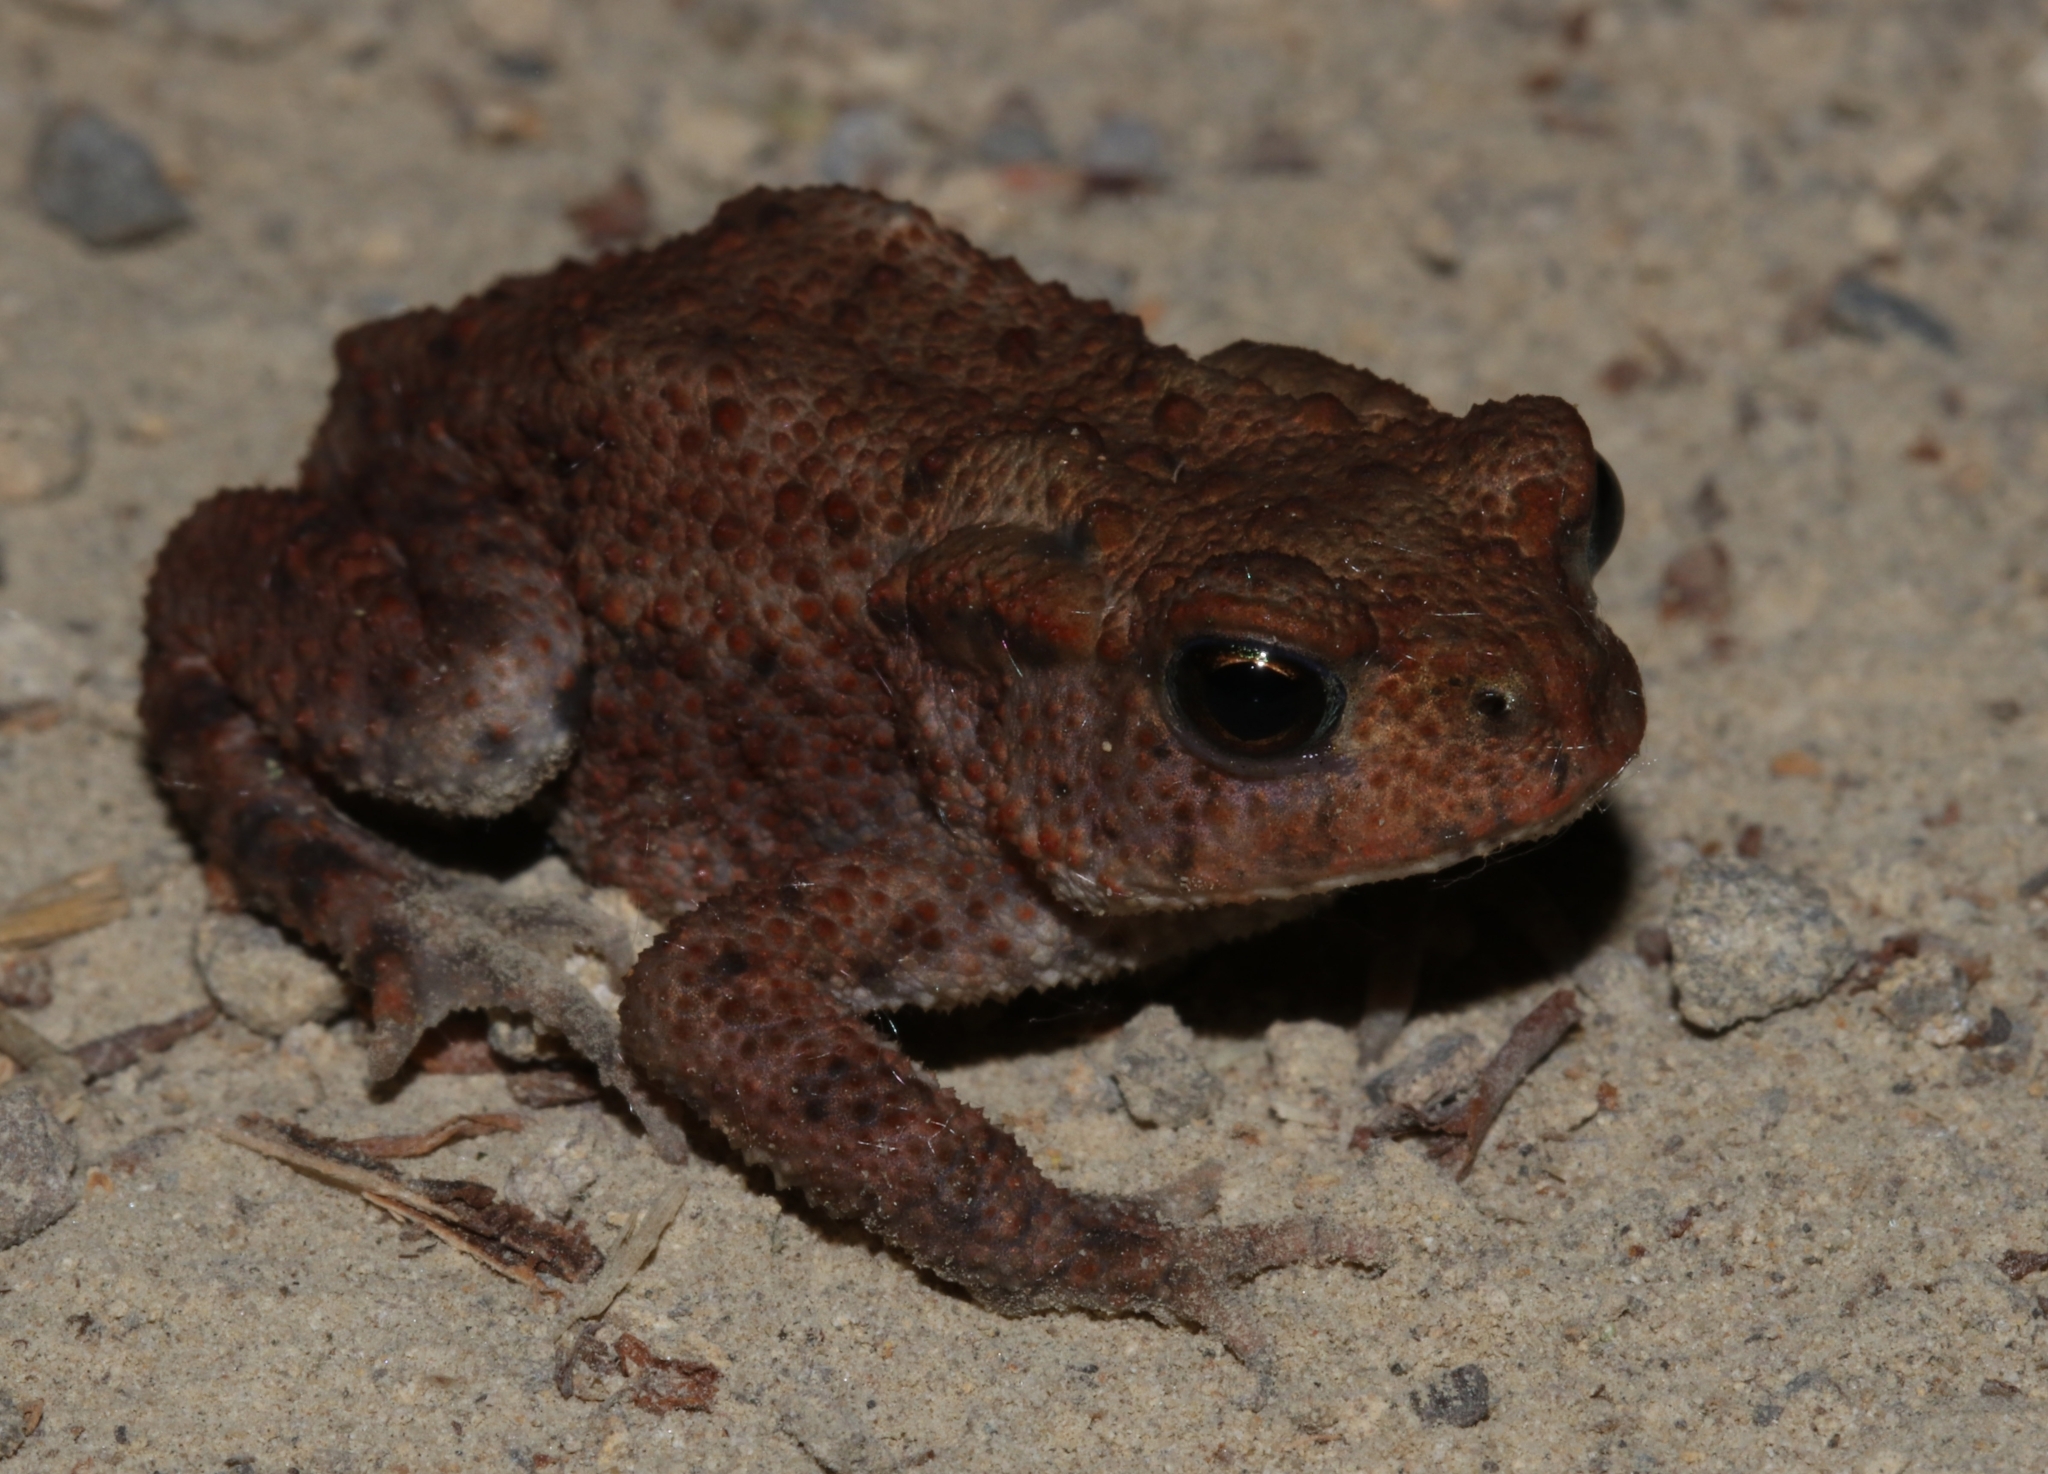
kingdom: Animalia
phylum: Chordata
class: Amphibia
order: Anura
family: Bufonidae
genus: Bufo
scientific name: Bufo bufo
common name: Common toad
